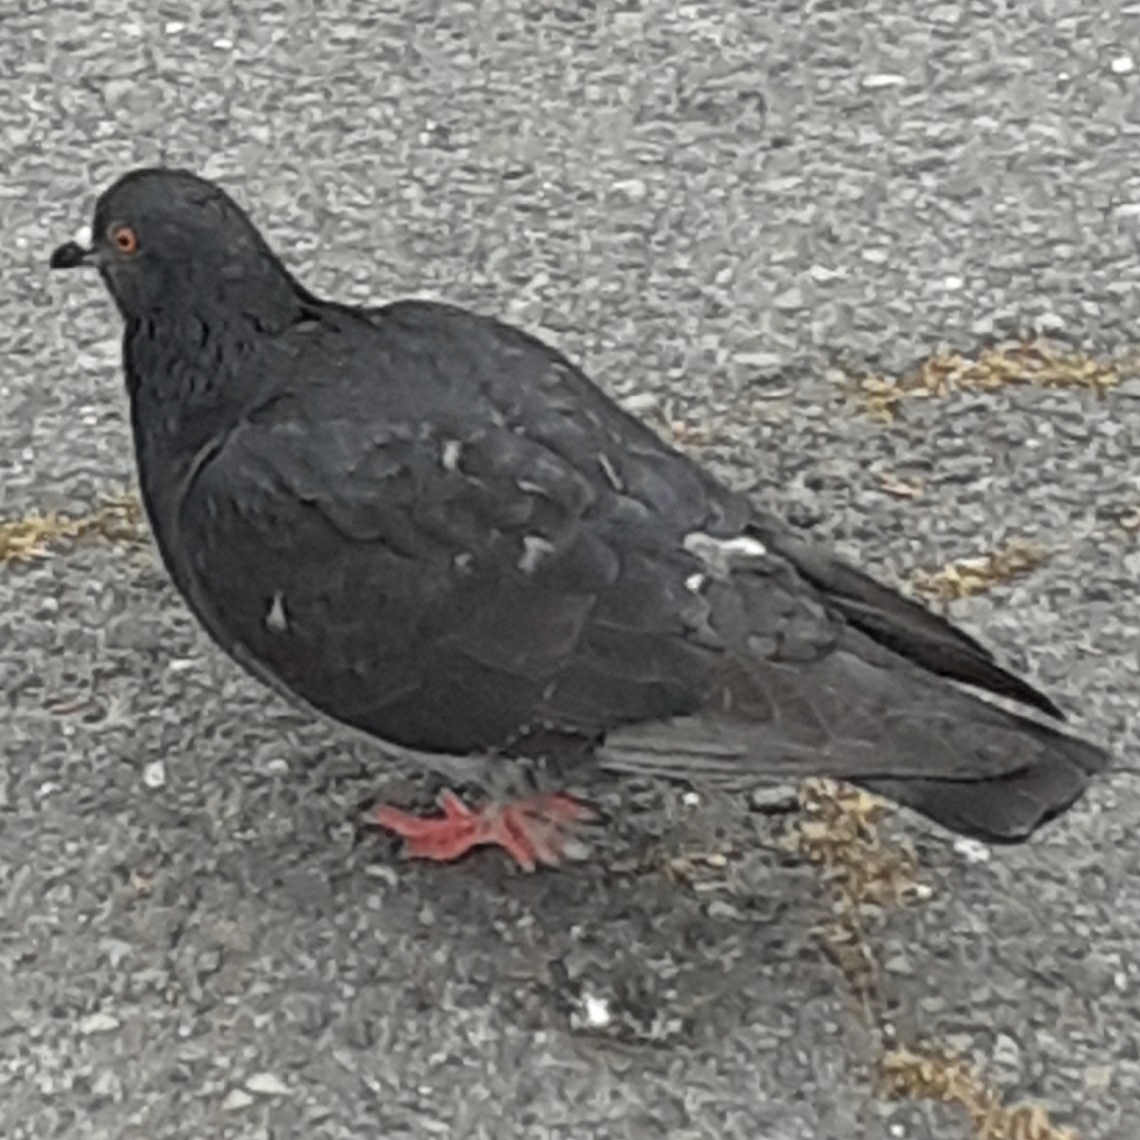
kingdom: Animalia
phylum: Chordata
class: Aves
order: Columbiformes
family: Columbidae
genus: Columba
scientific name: Columba livia
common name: Rock pigeon
